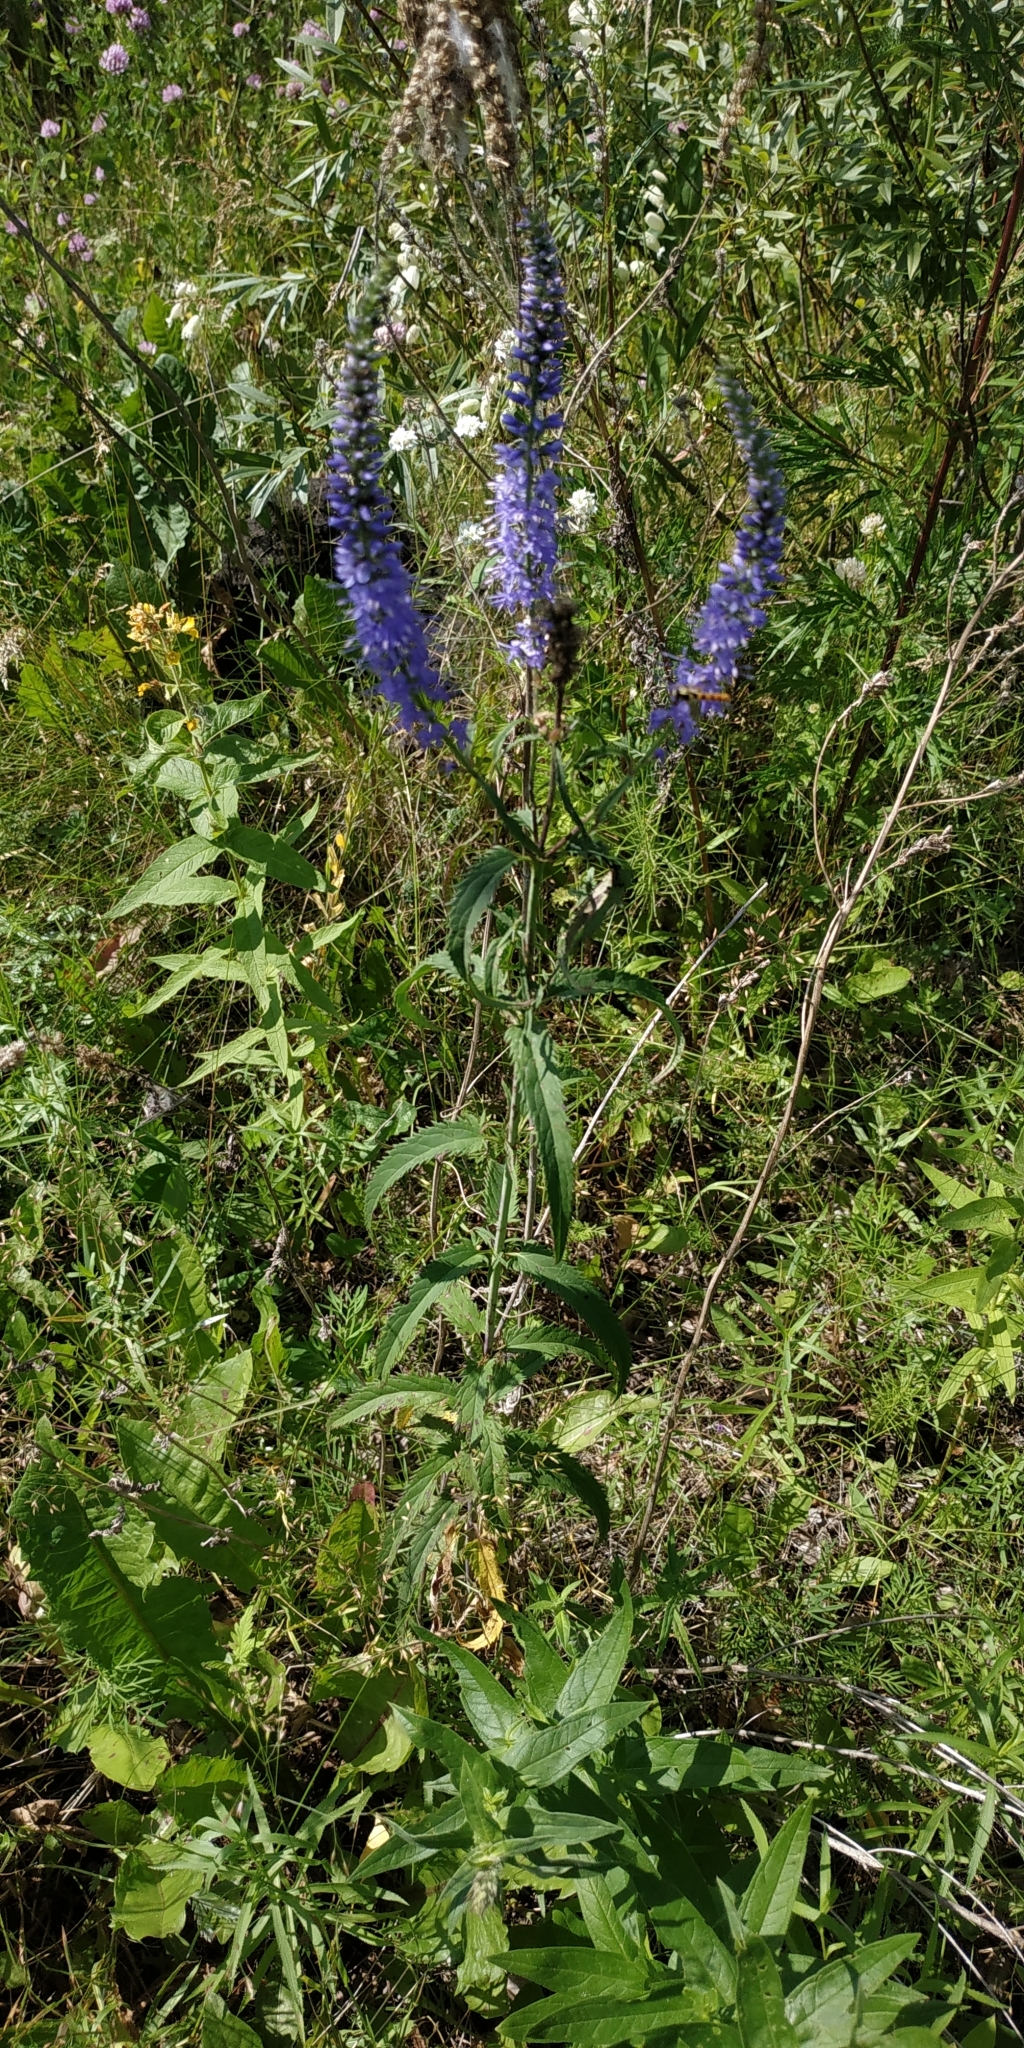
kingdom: Plantae
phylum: Tracheophyta
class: Magnoliopsida
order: Lamiales
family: Plantaginaceae
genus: Veronica
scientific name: Veronica longifolia
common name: Garden speedwell
